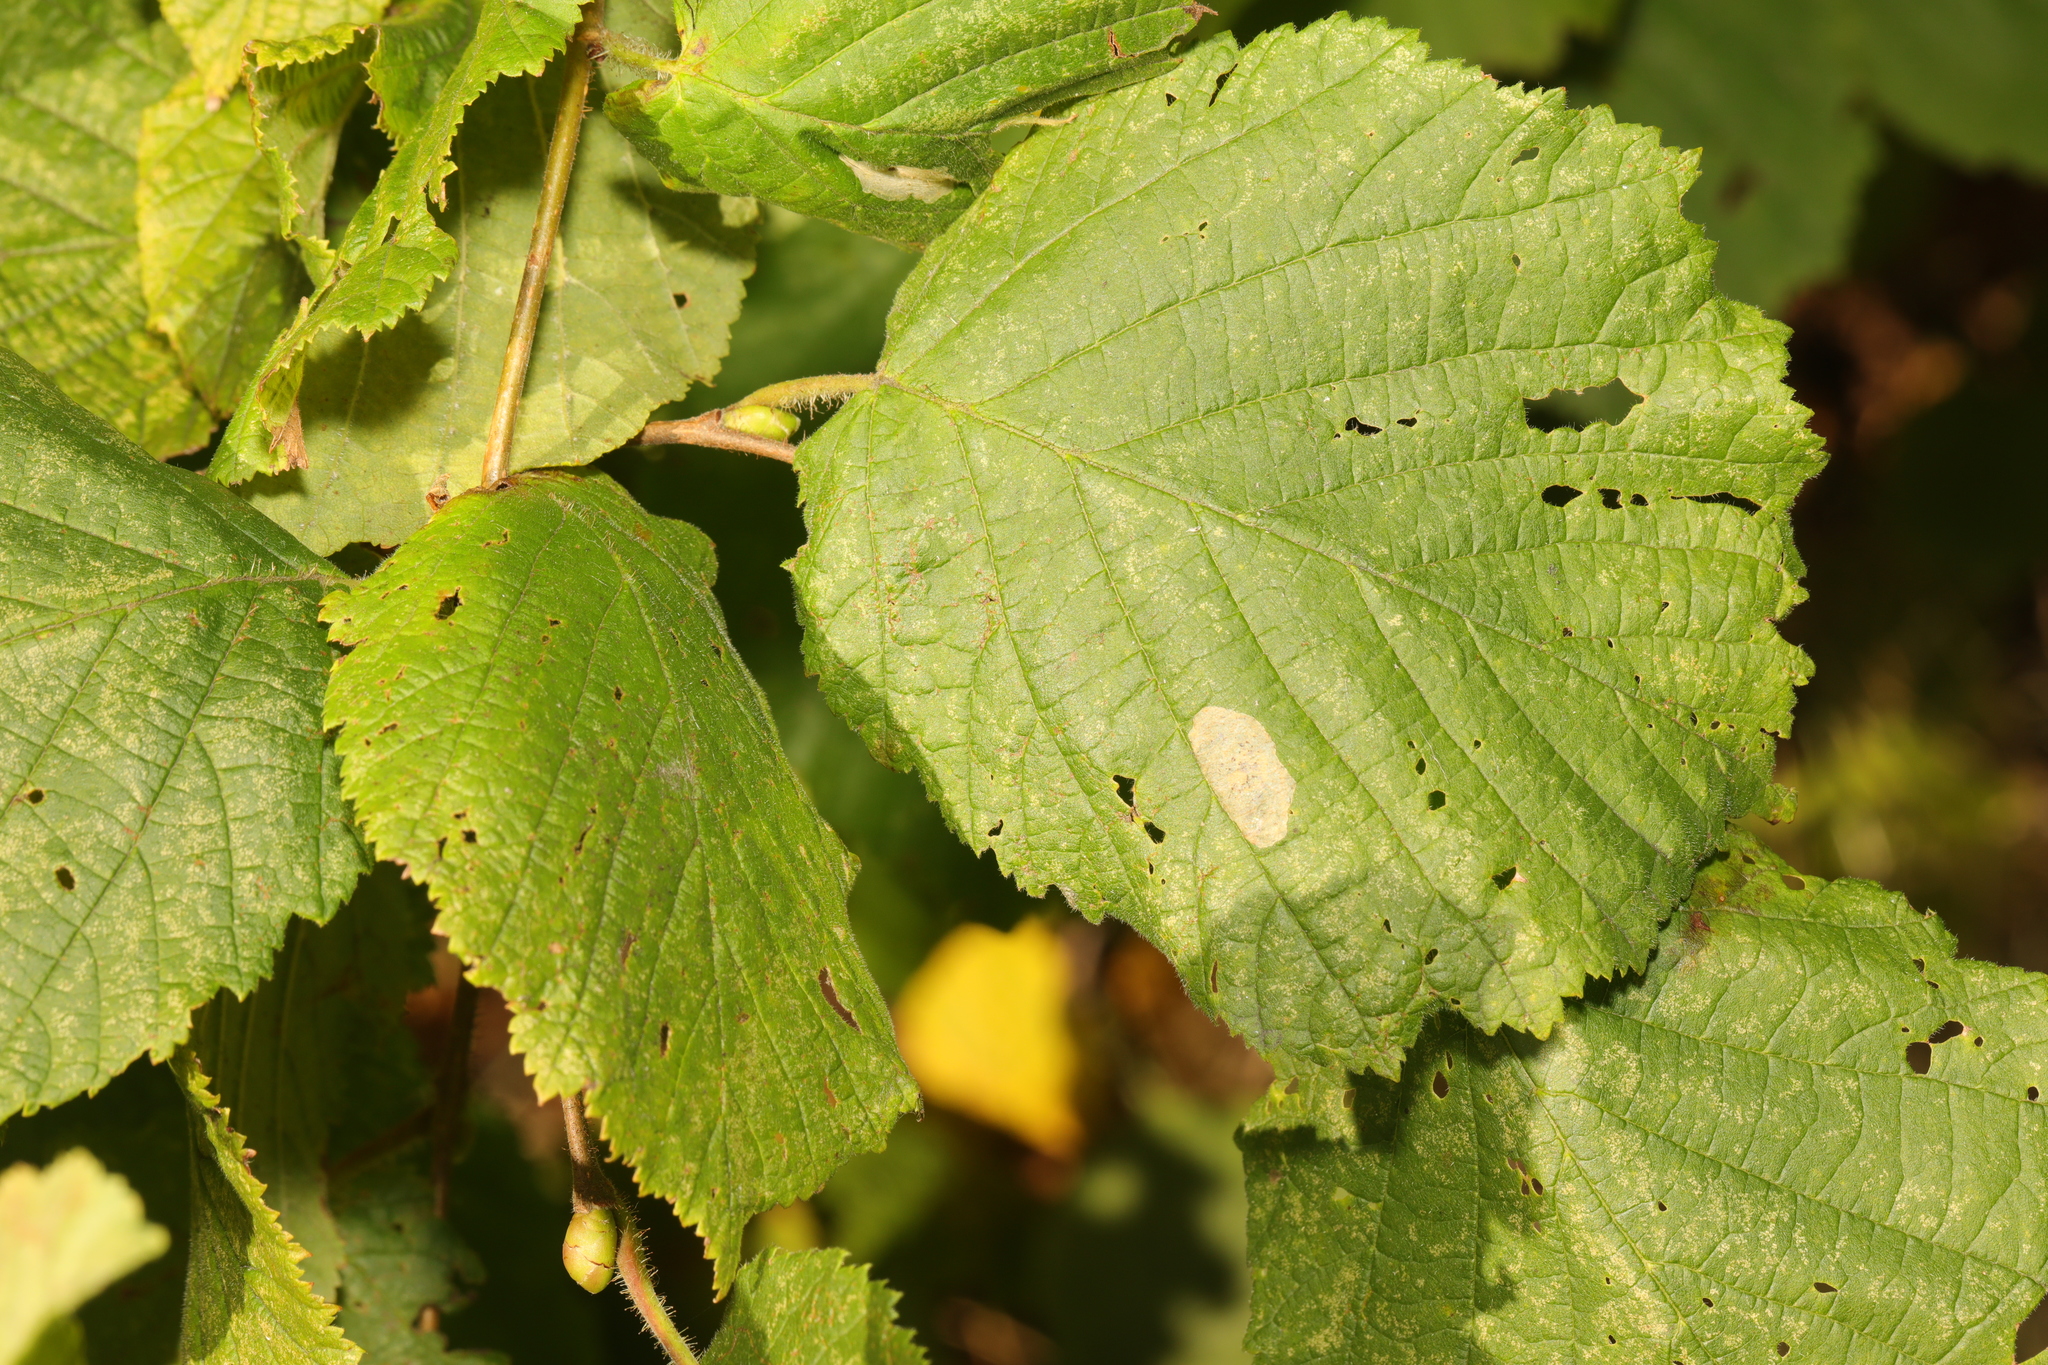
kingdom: Plantae
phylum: Tracheophyta
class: Magnoliopsida
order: Fagales
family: Betulaceae
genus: Corylus
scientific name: Corylus avellana
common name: European hazel
